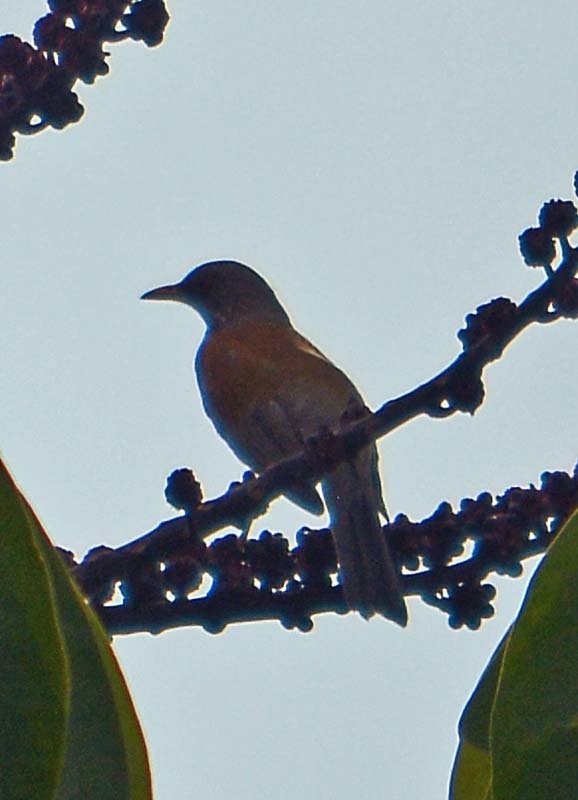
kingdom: Animalia
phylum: Chordata
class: Aves
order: Passeriformes
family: Turdidae
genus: Turdus
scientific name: Turdus rufopalliatus
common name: Rufous-backed robin
